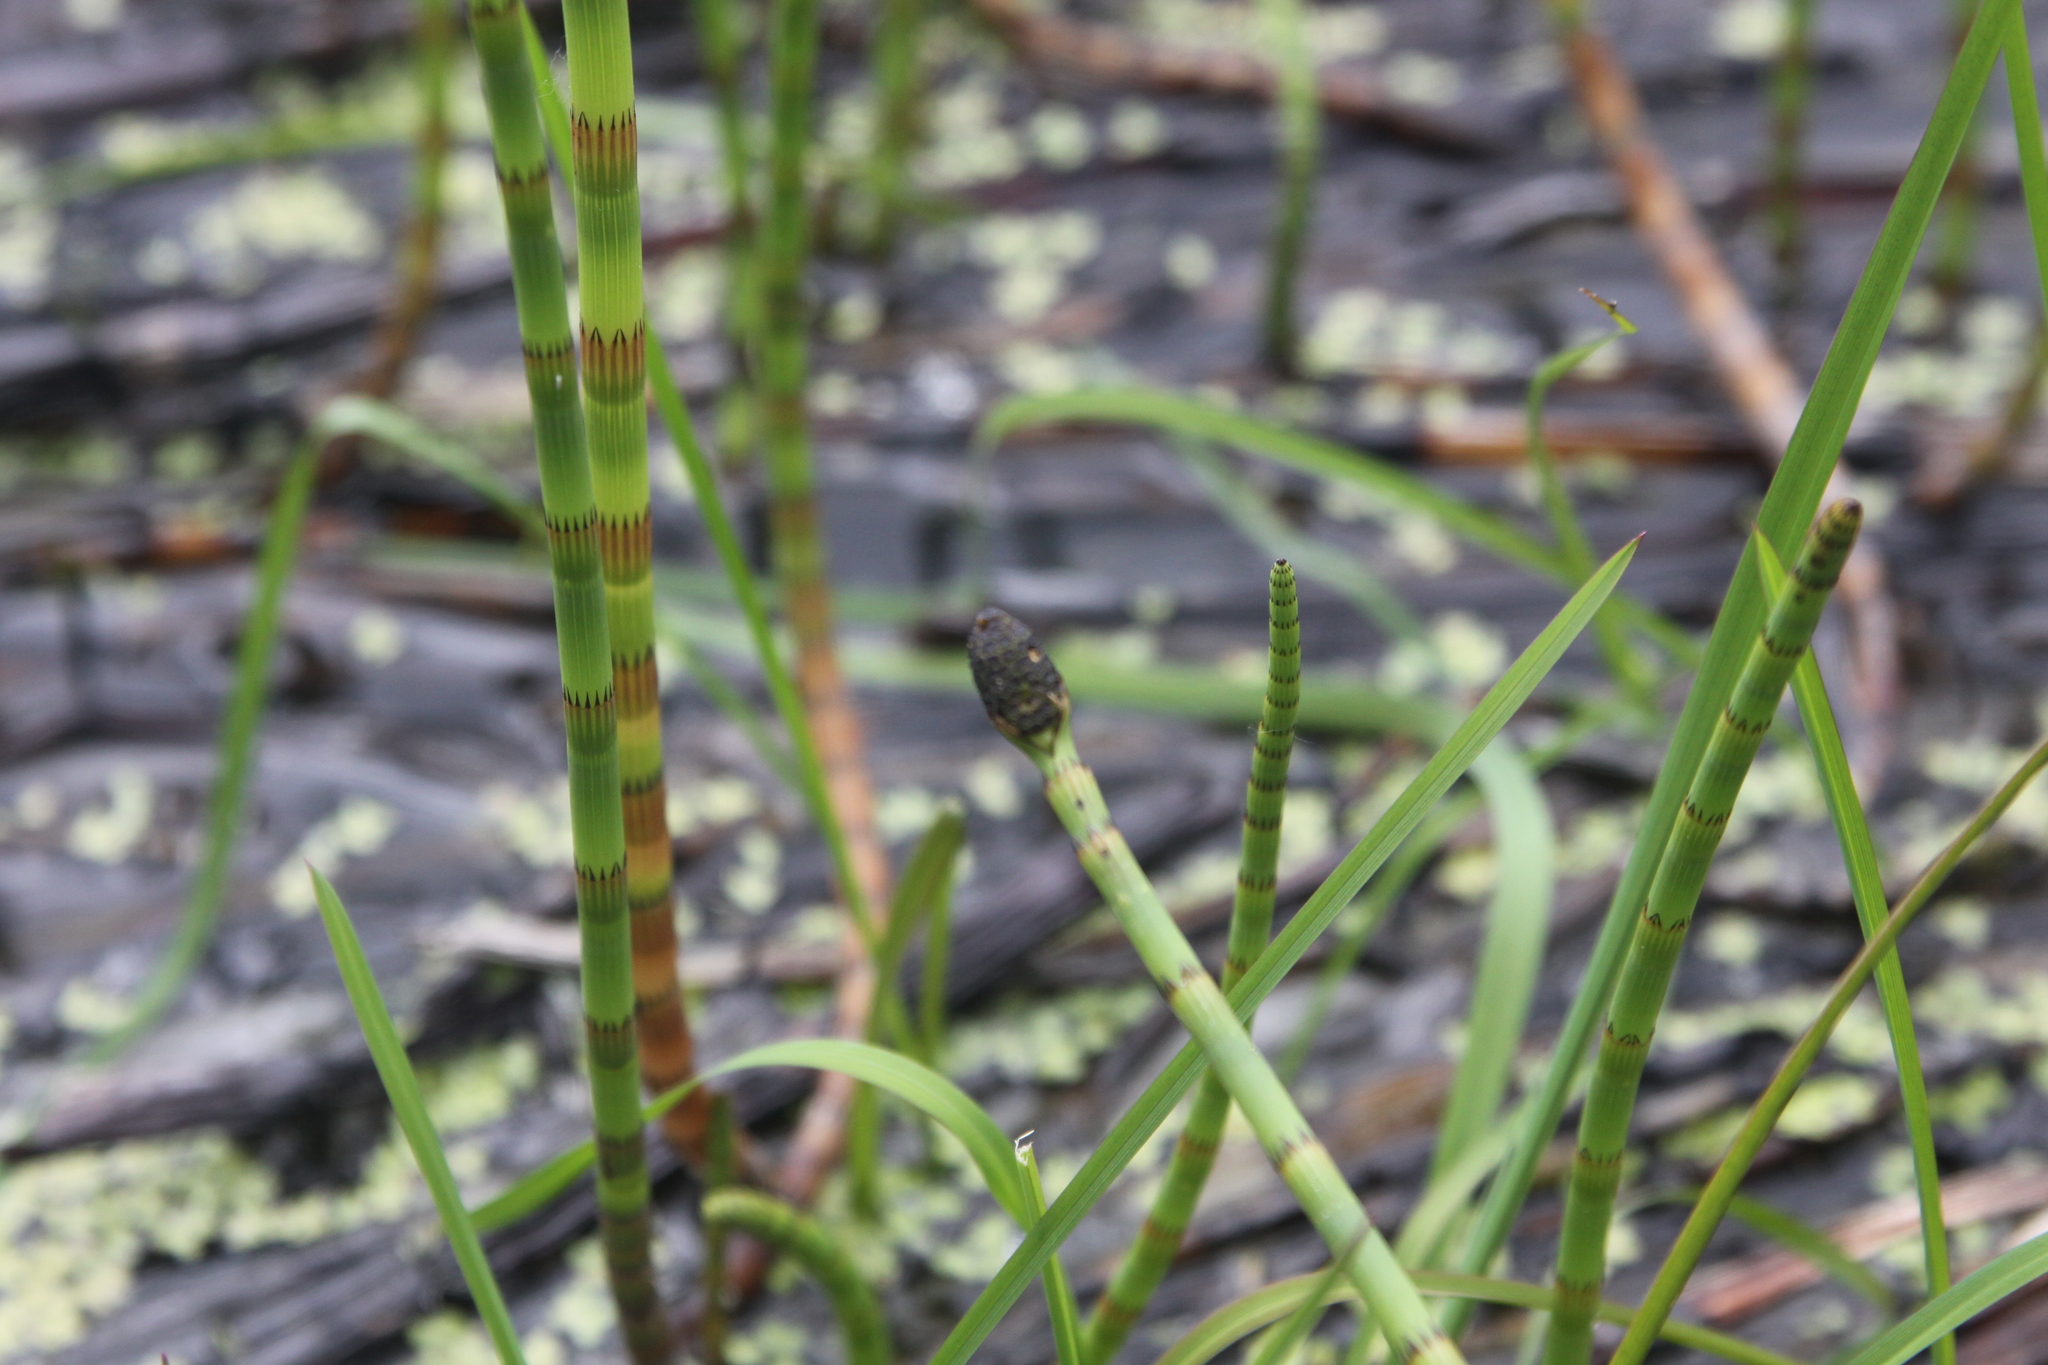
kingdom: Plantae
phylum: Tracheophyta
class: Polypodiopsida
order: Equisetales
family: Equisetaceae
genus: Equisetum
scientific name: Equisetum fluviatile
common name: Water horsetail
